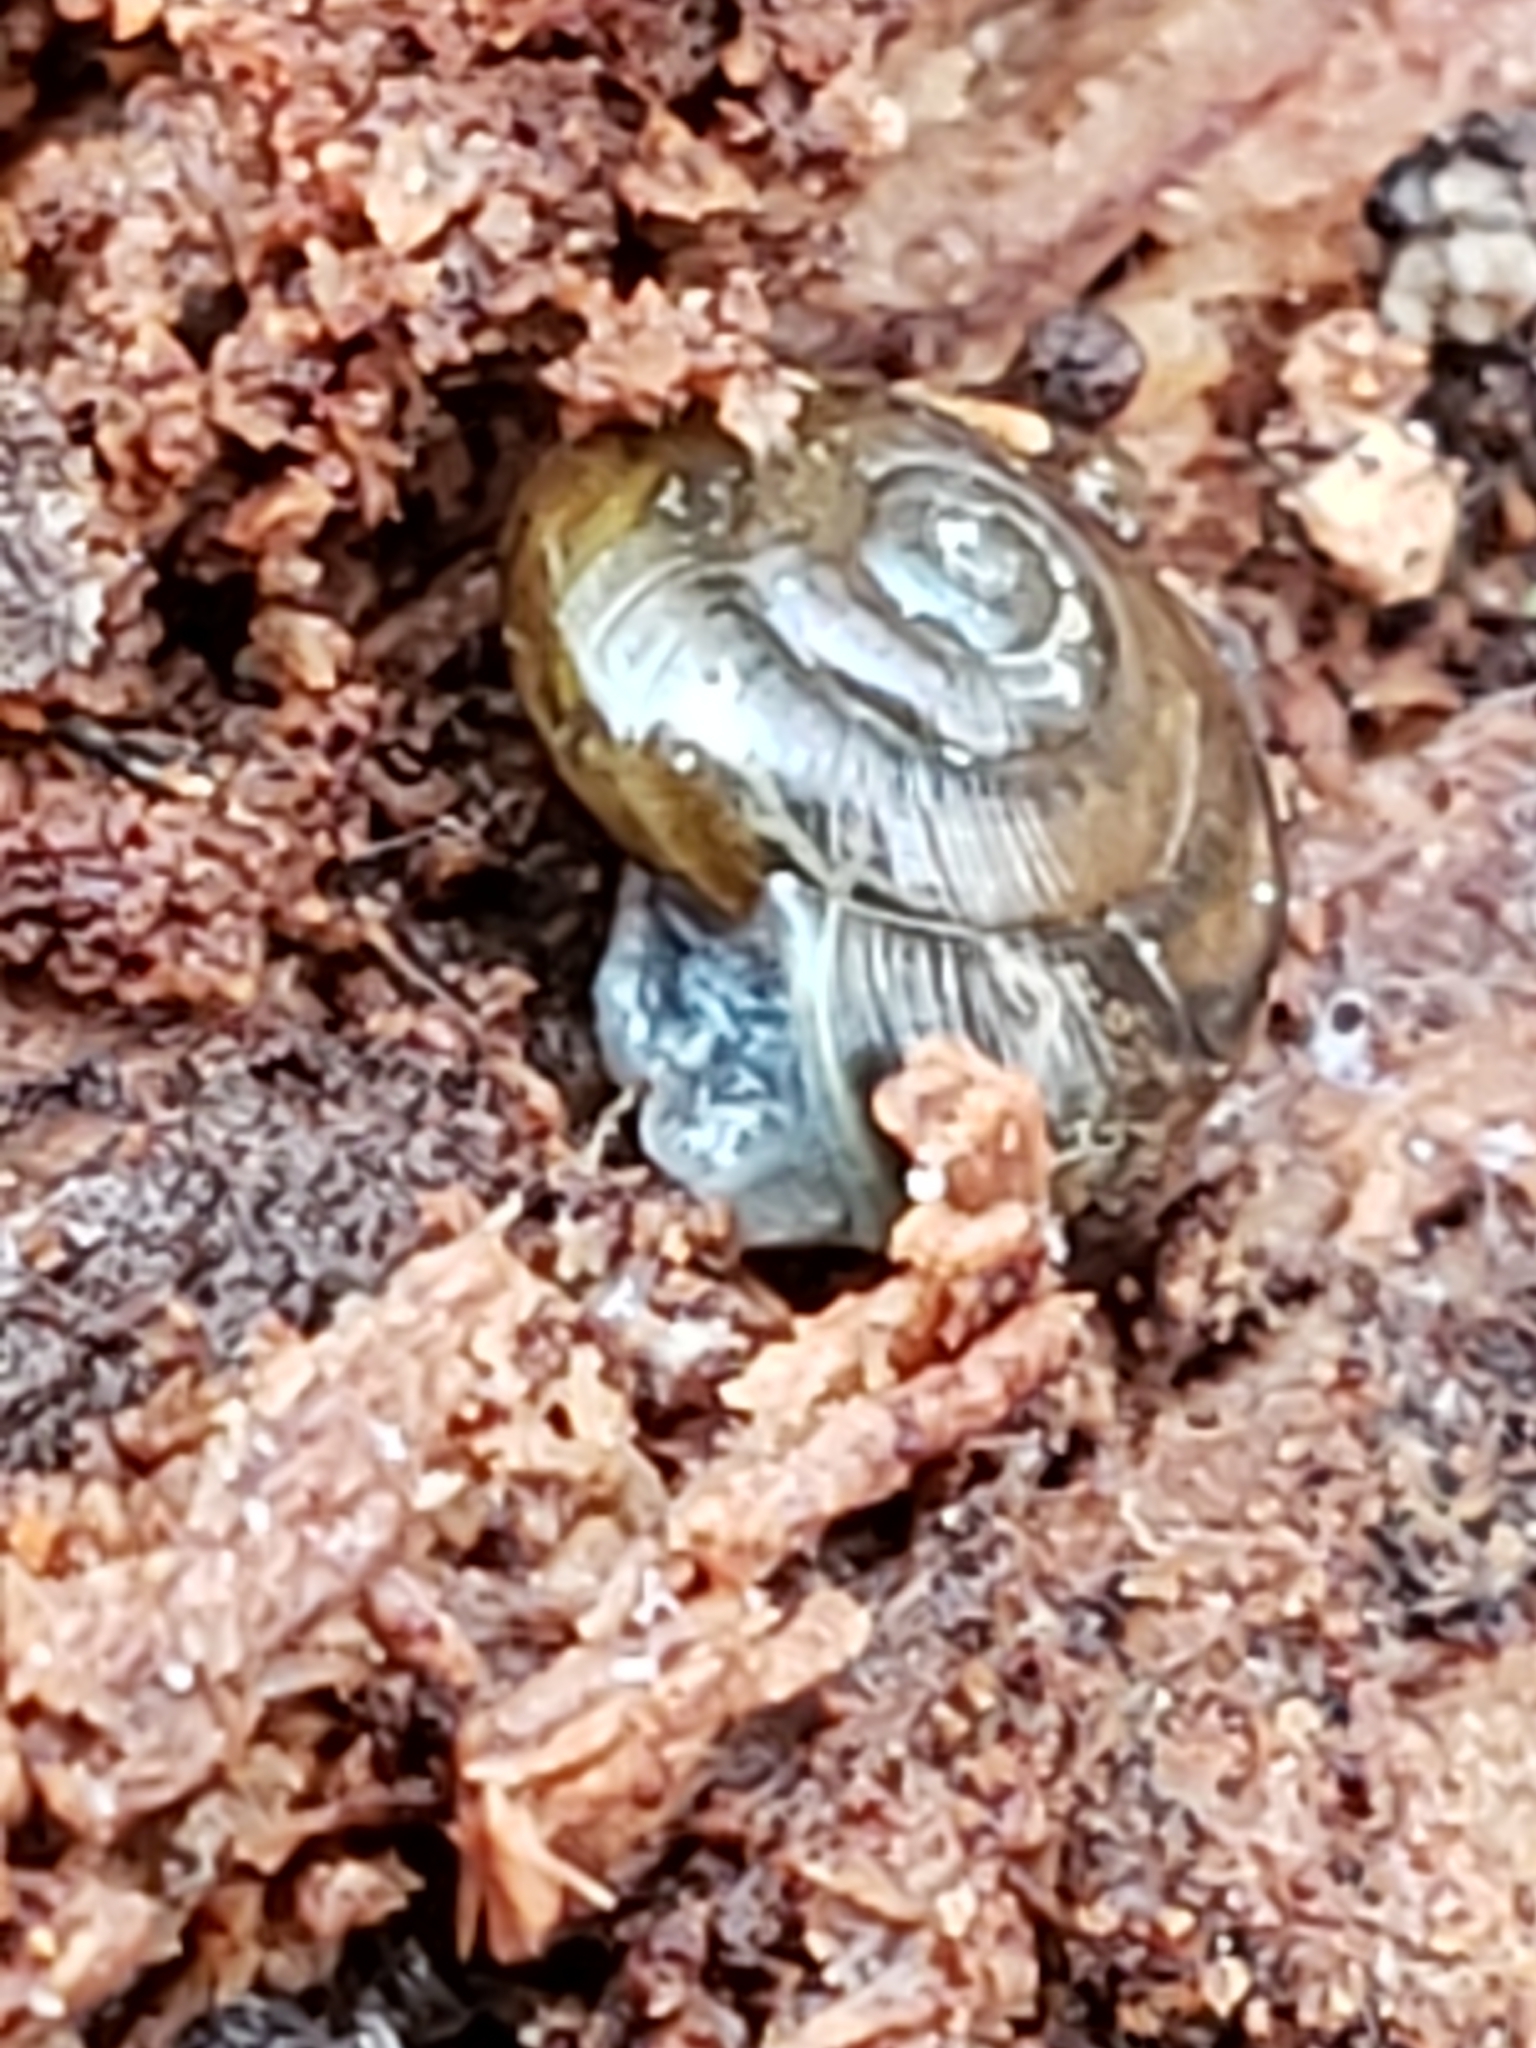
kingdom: Animalia
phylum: Mollusca
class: Gastropoda
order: Stylommatophora
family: Gastrodontidae
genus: Zonitoides
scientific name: Zonitoides arboreus
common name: Quick gloss
